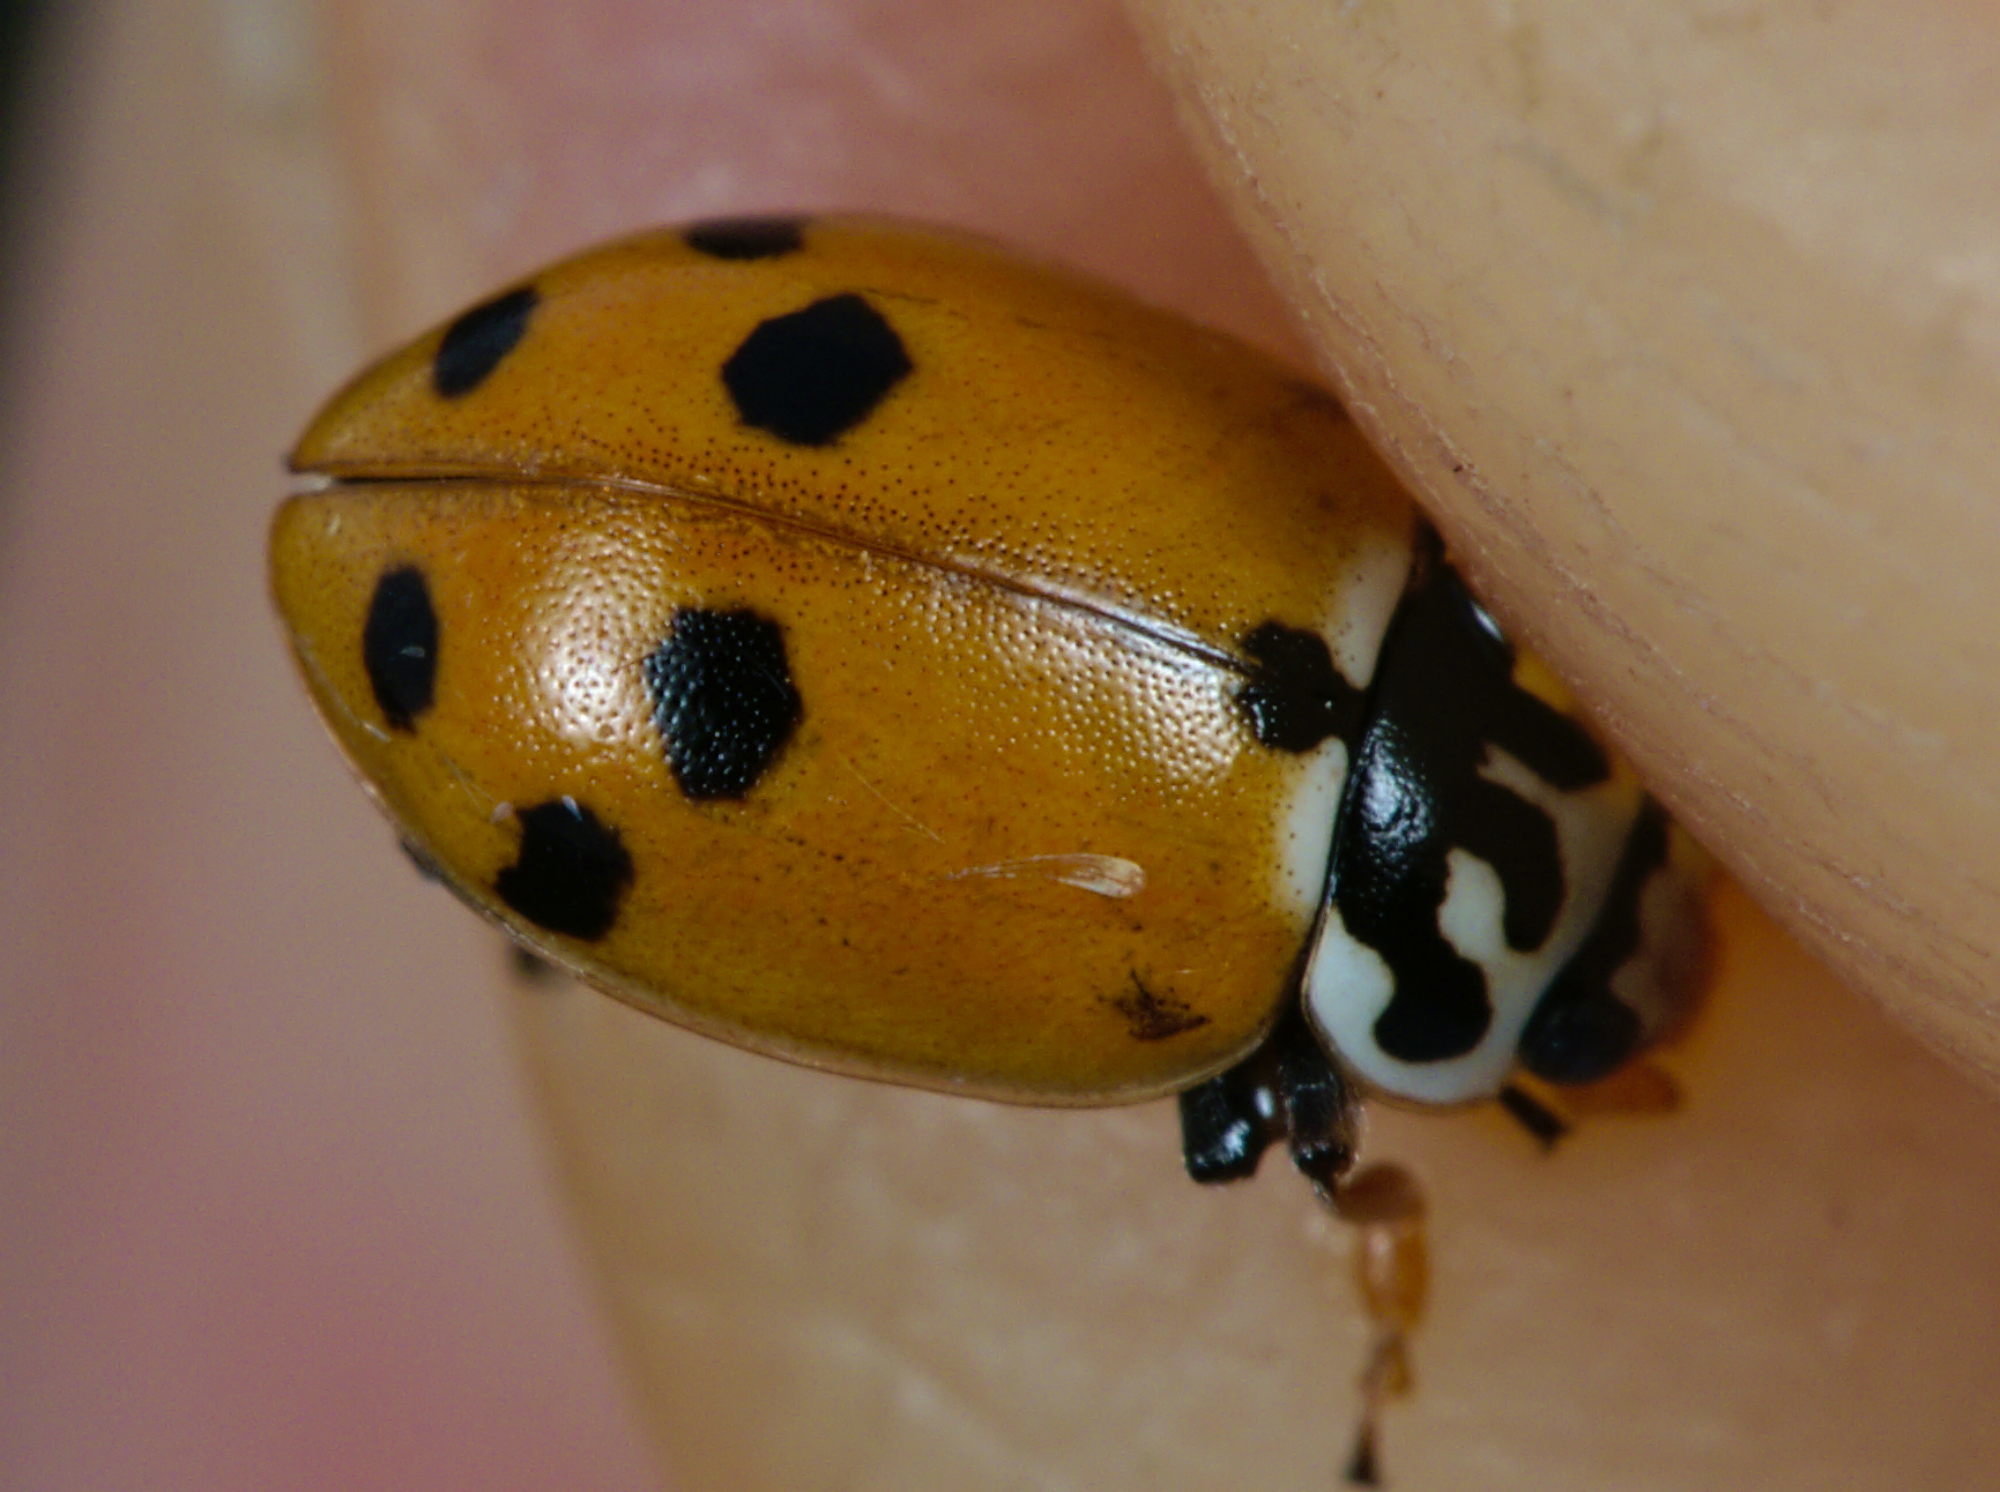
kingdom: Animalia
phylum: Arthropoda
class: Insecta
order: Coleoptera
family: Coccinellidae
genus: Hippodamia
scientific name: Hippodamia variegata
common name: Ladybird beetle
